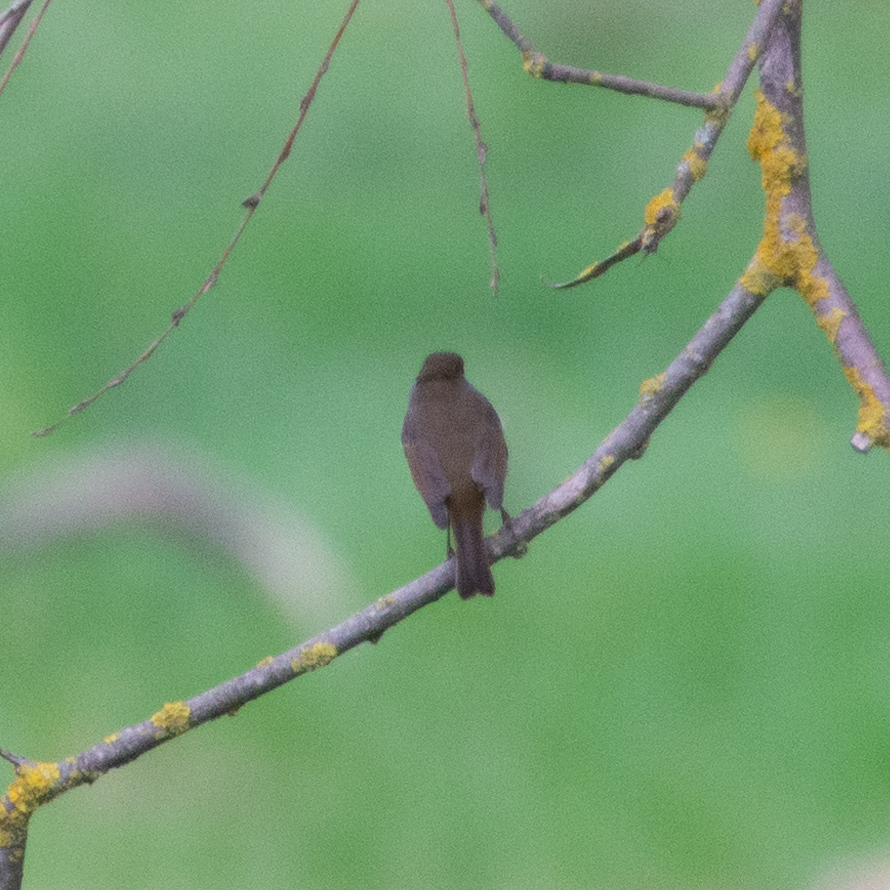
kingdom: Animalia
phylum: Chordata
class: Aves
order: Passeriformes
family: Muscicapidae
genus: Erithacus
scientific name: Erithacus rubecula
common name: European robin
